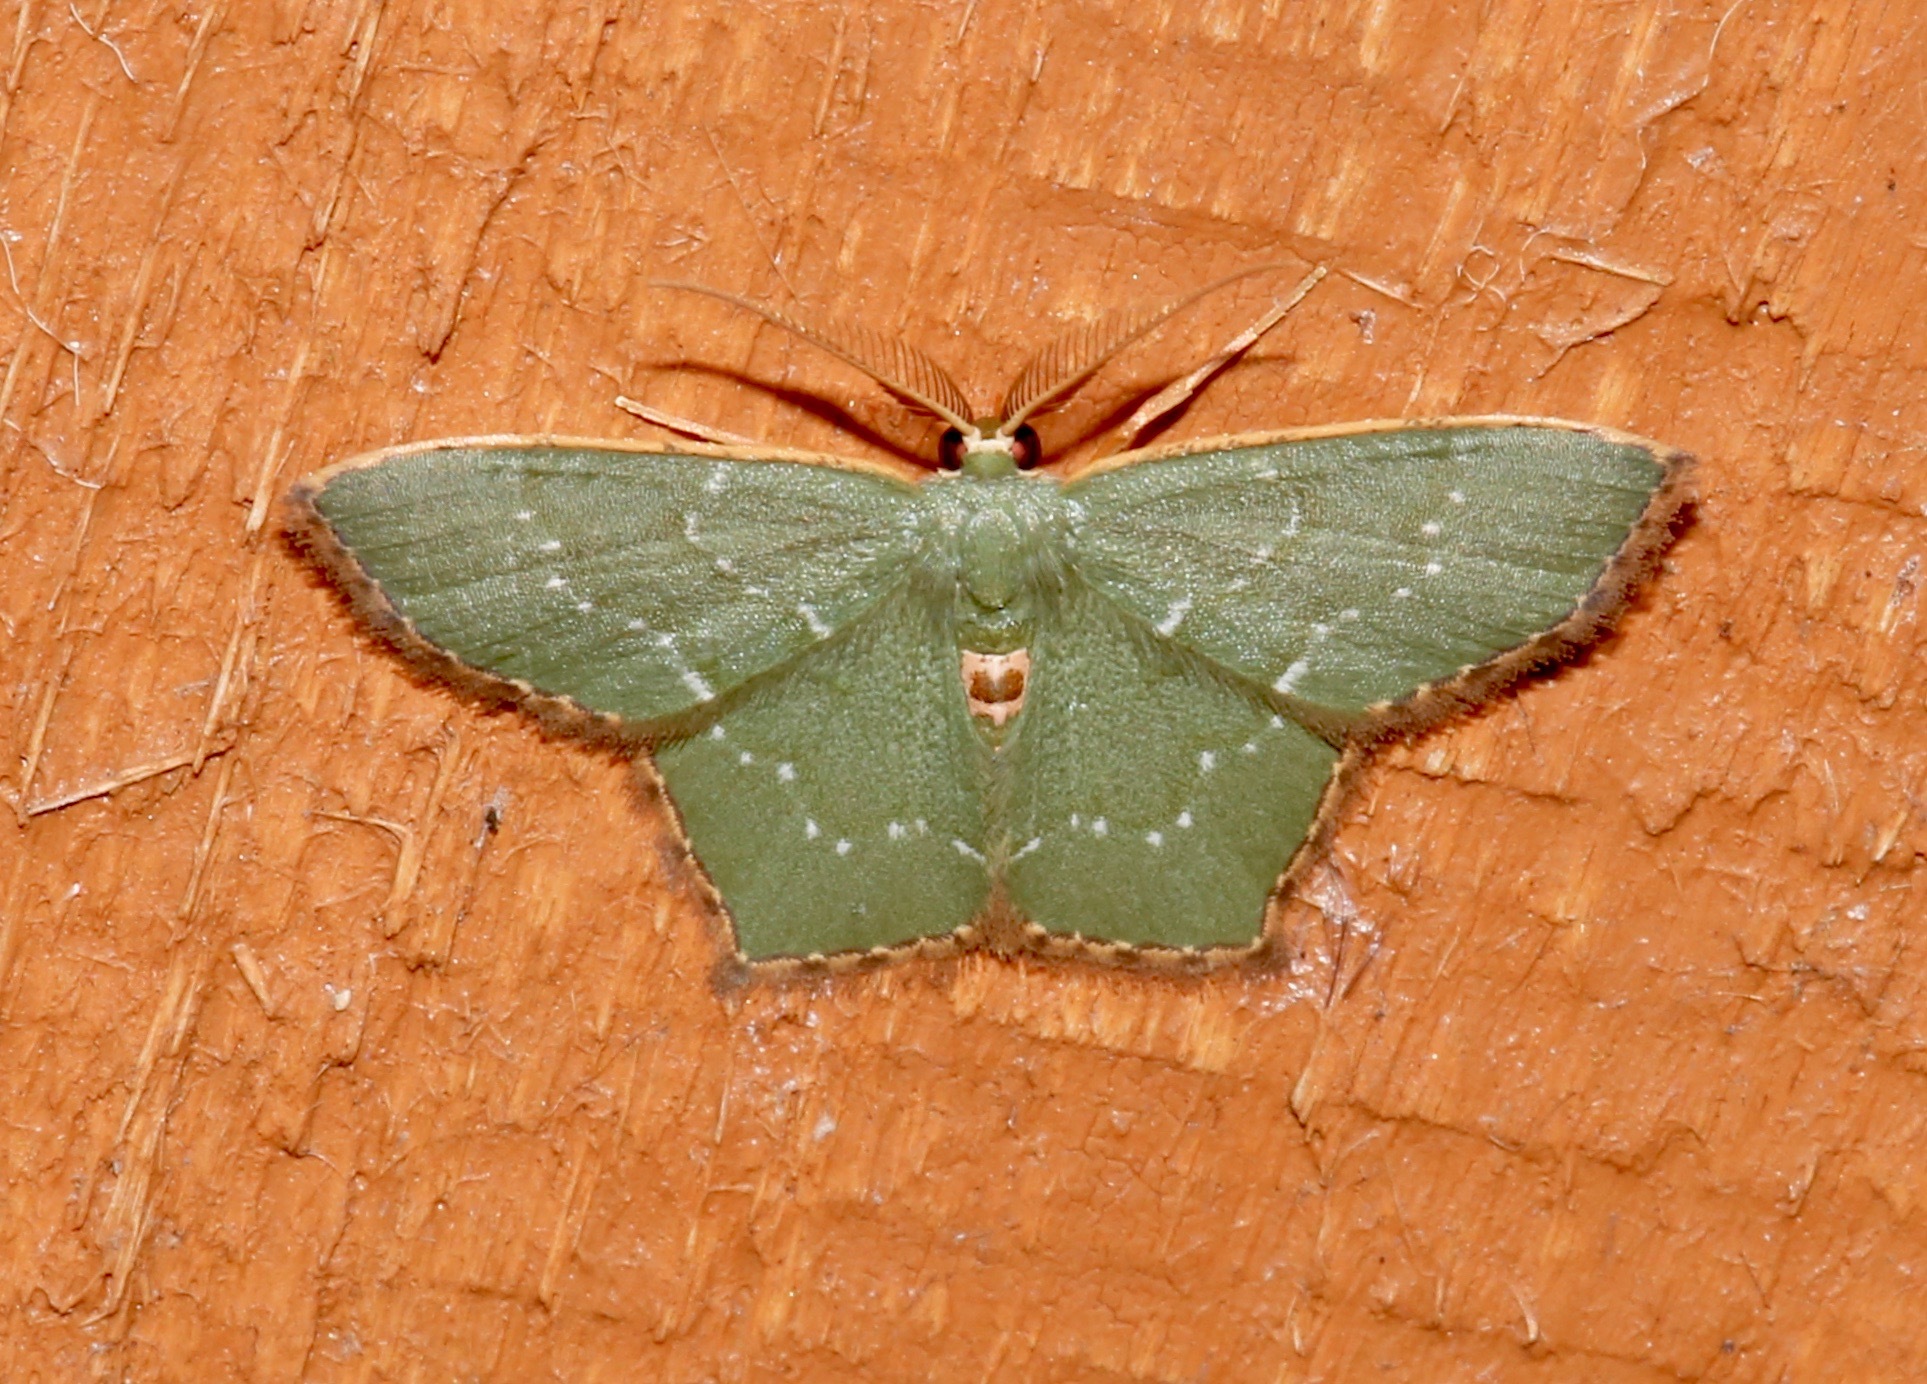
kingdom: Animalia
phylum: Arthropoda
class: Insecta
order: Lepidoptera
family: Geometridae
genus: Chloropteryx
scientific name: Chloropteryx tepperaria
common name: Angle winged emerald moth
